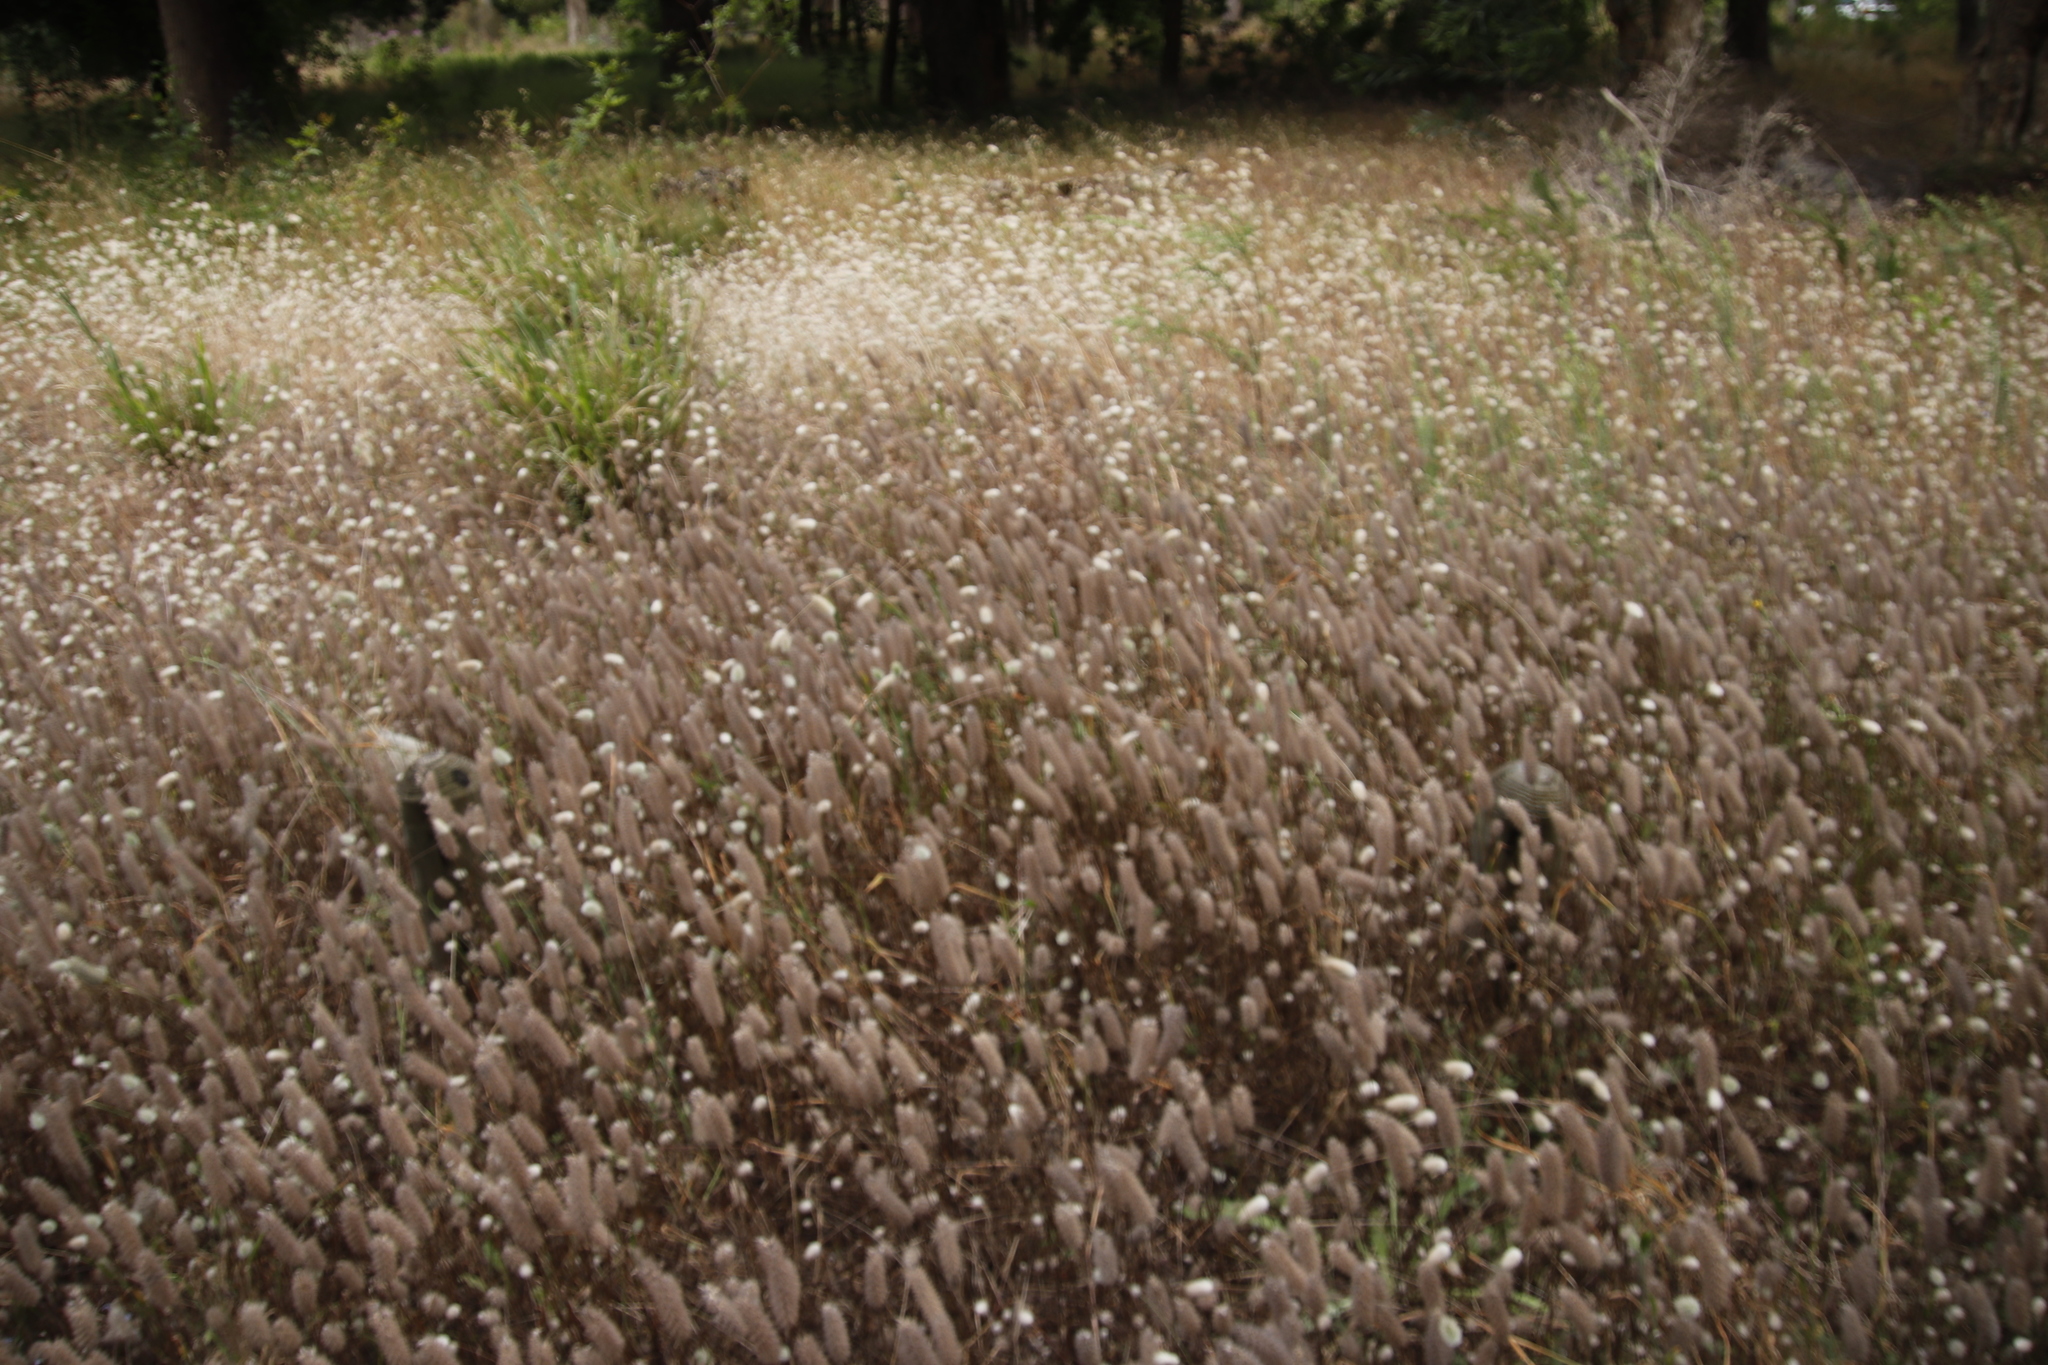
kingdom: Plantae
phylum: Tracheophyta
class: Magnoliopsida
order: Fabales
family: Fabaceae
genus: Trifolium
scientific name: Trifolium angustifolium
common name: Narrow clover
